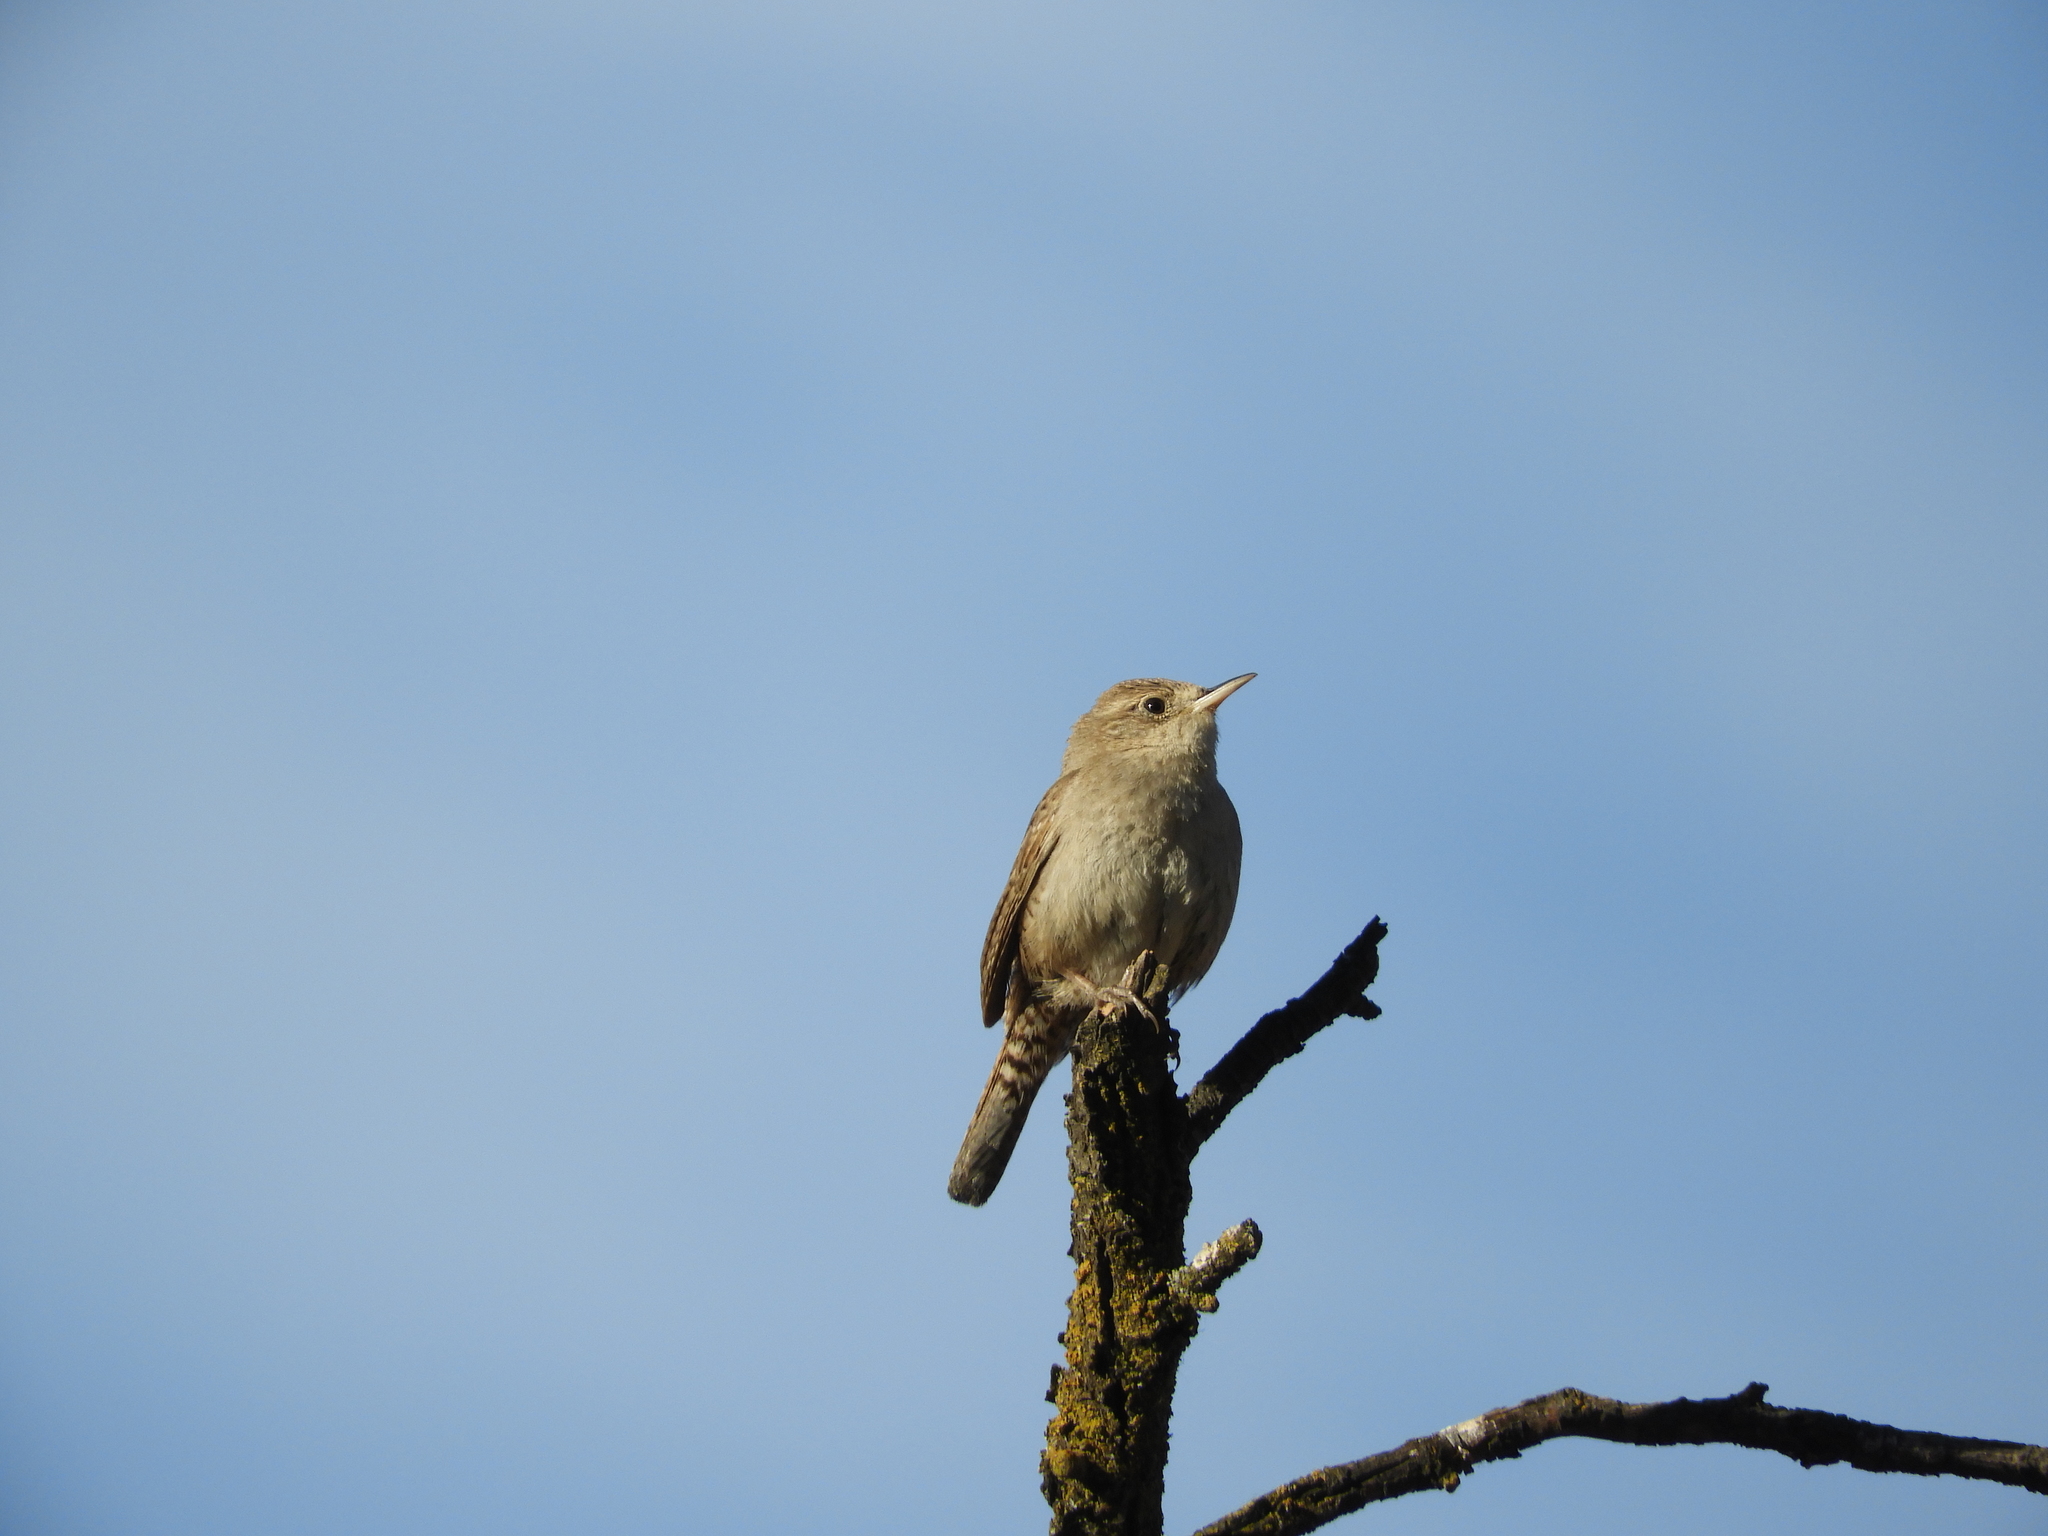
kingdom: Animalia
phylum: Chordata
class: Aves
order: Passeriformes
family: Troglodytidae
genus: Troglodytes
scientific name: Troglodytes aedon
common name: House wren
